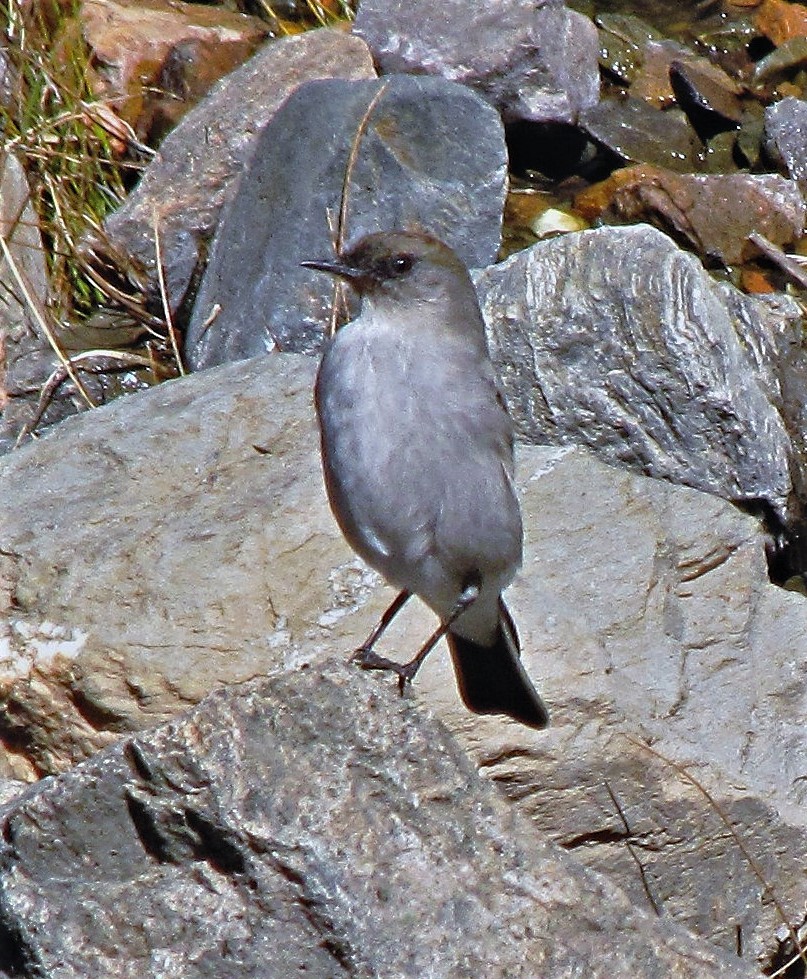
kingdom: Animalia
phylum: Chordata
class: Aves
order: Passeriformes
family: Tyrannidae
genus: Muscisaxicola
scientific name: Muscisaxicola maclovianus
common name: Dark-faced ground tyrant
